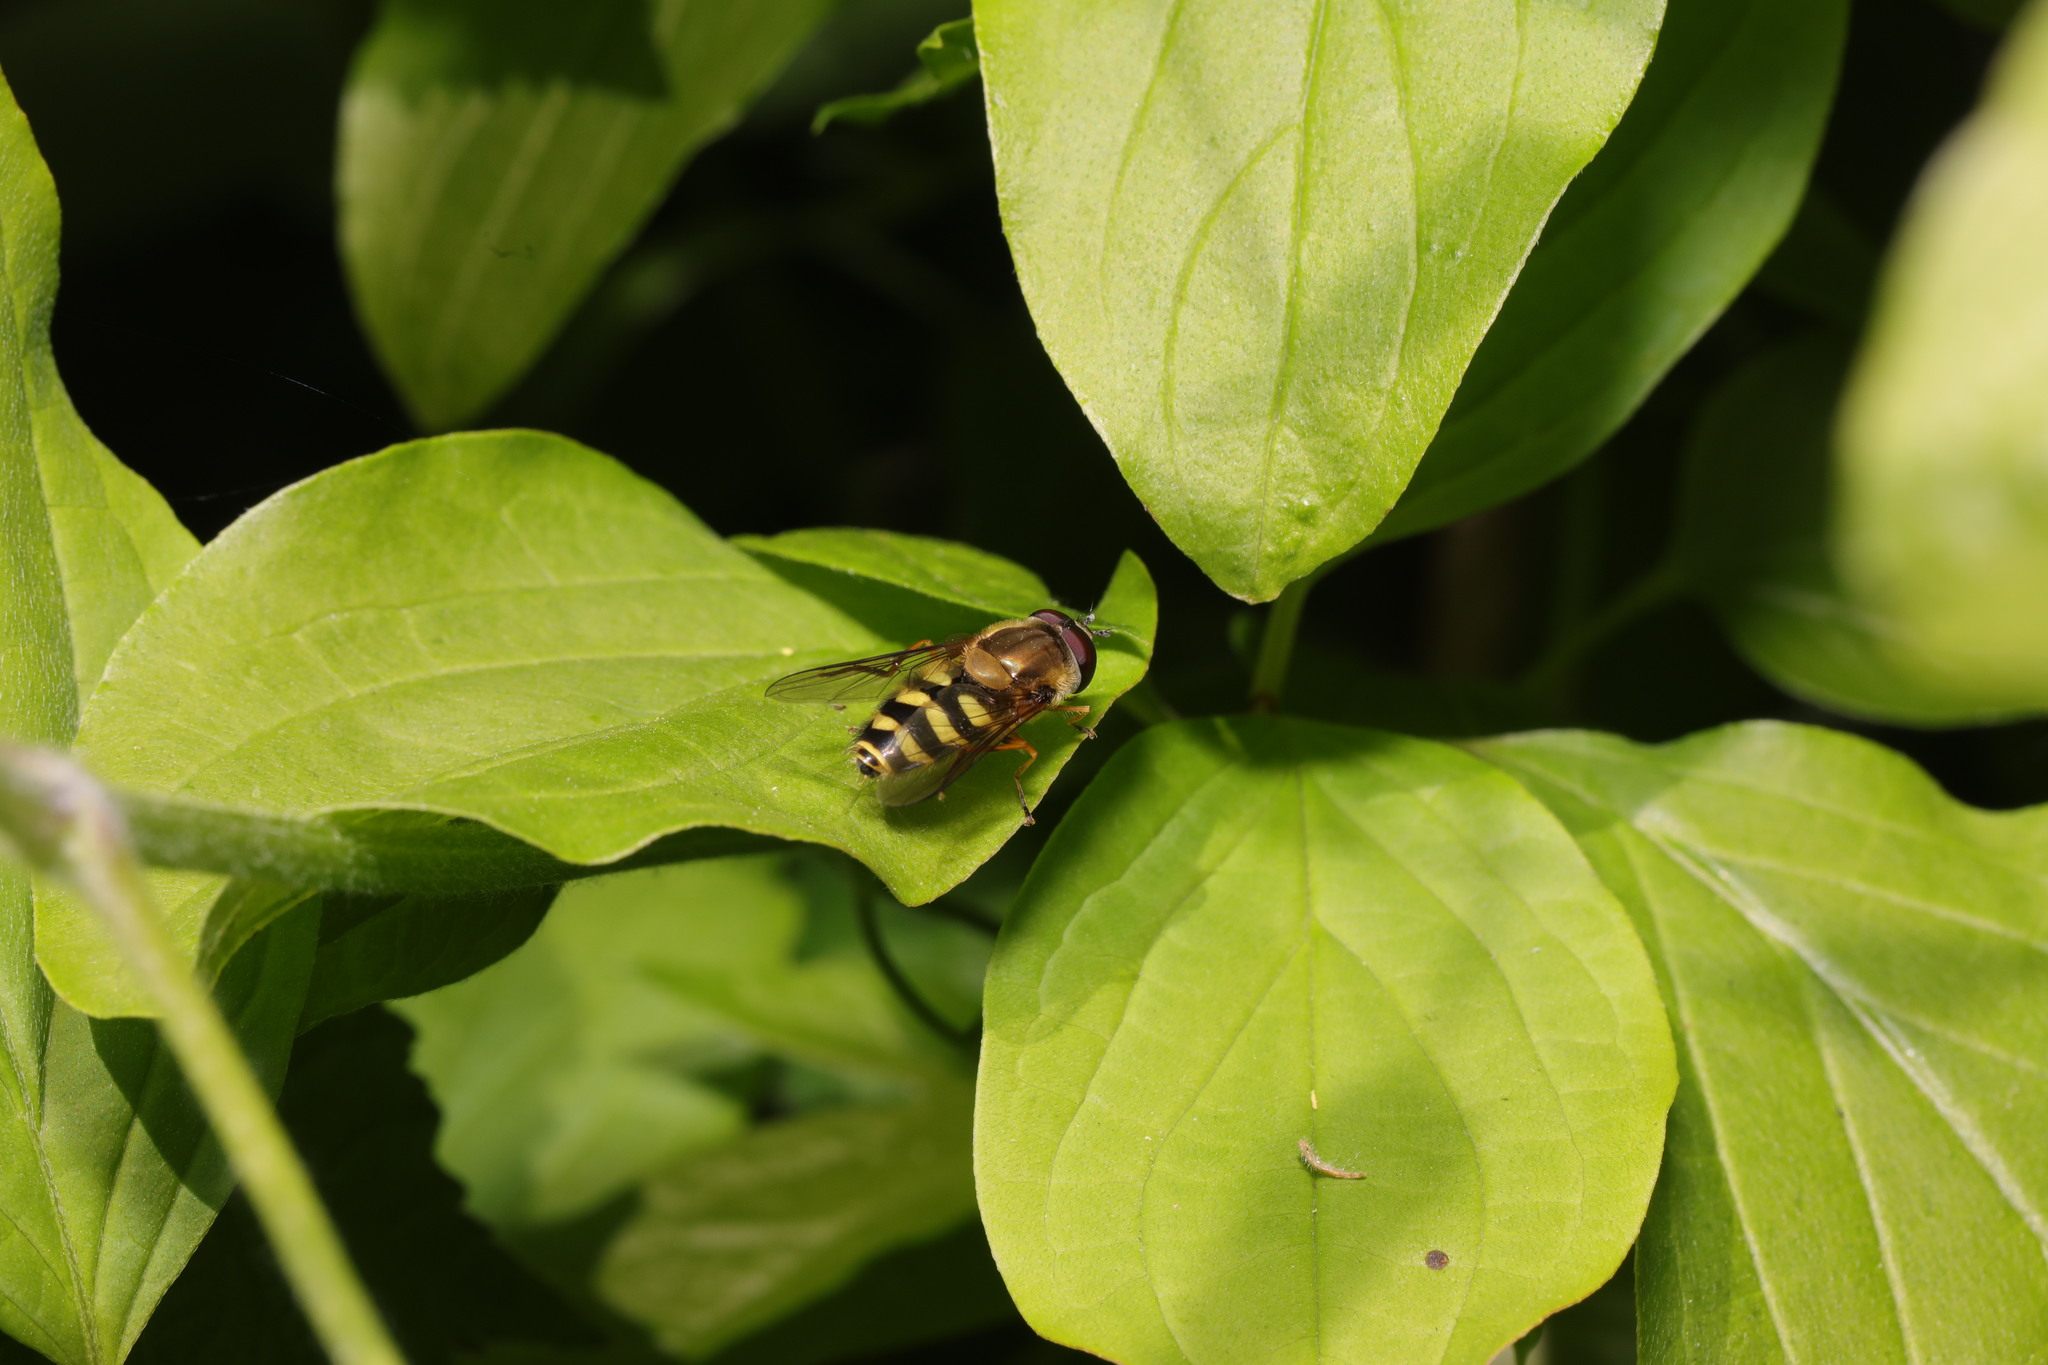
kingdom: Animalia
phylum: Arthropoda
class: Insecta
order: Diptera
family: Syrphidae
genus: Syrphus
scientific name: Syrphus
